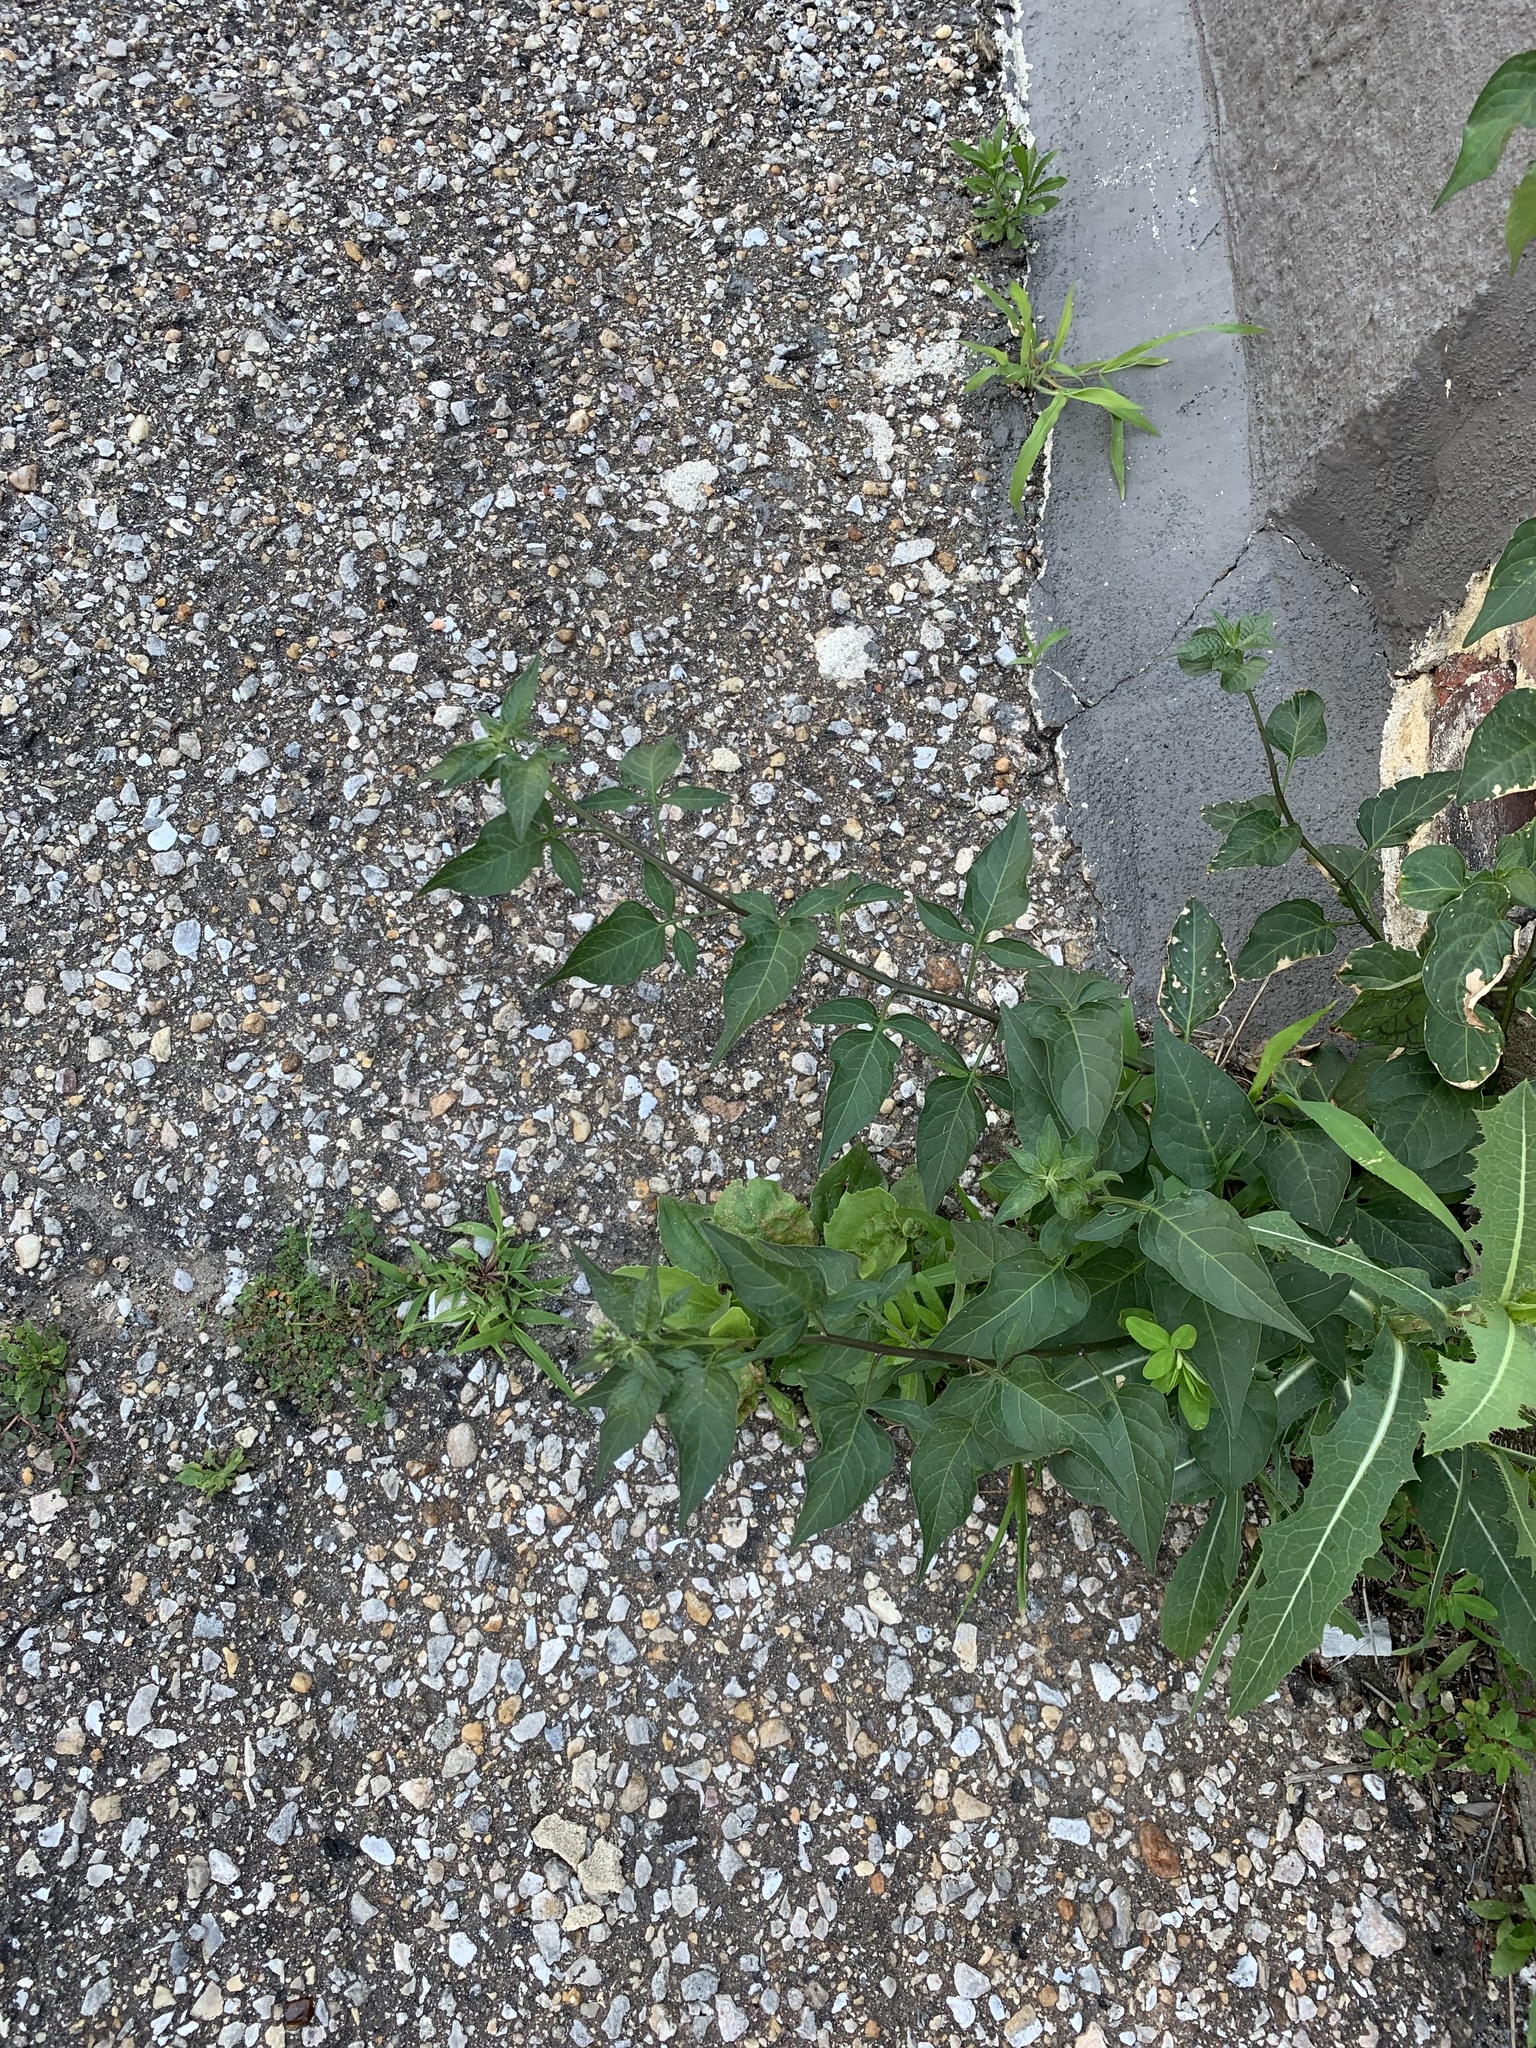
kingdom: Plantae
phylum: Tracheophyta
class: Magnoliopsida
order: Solanales
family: Solanaceae
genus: Solanum
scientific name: Solanum dulcamara
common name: Climbing nightshade
